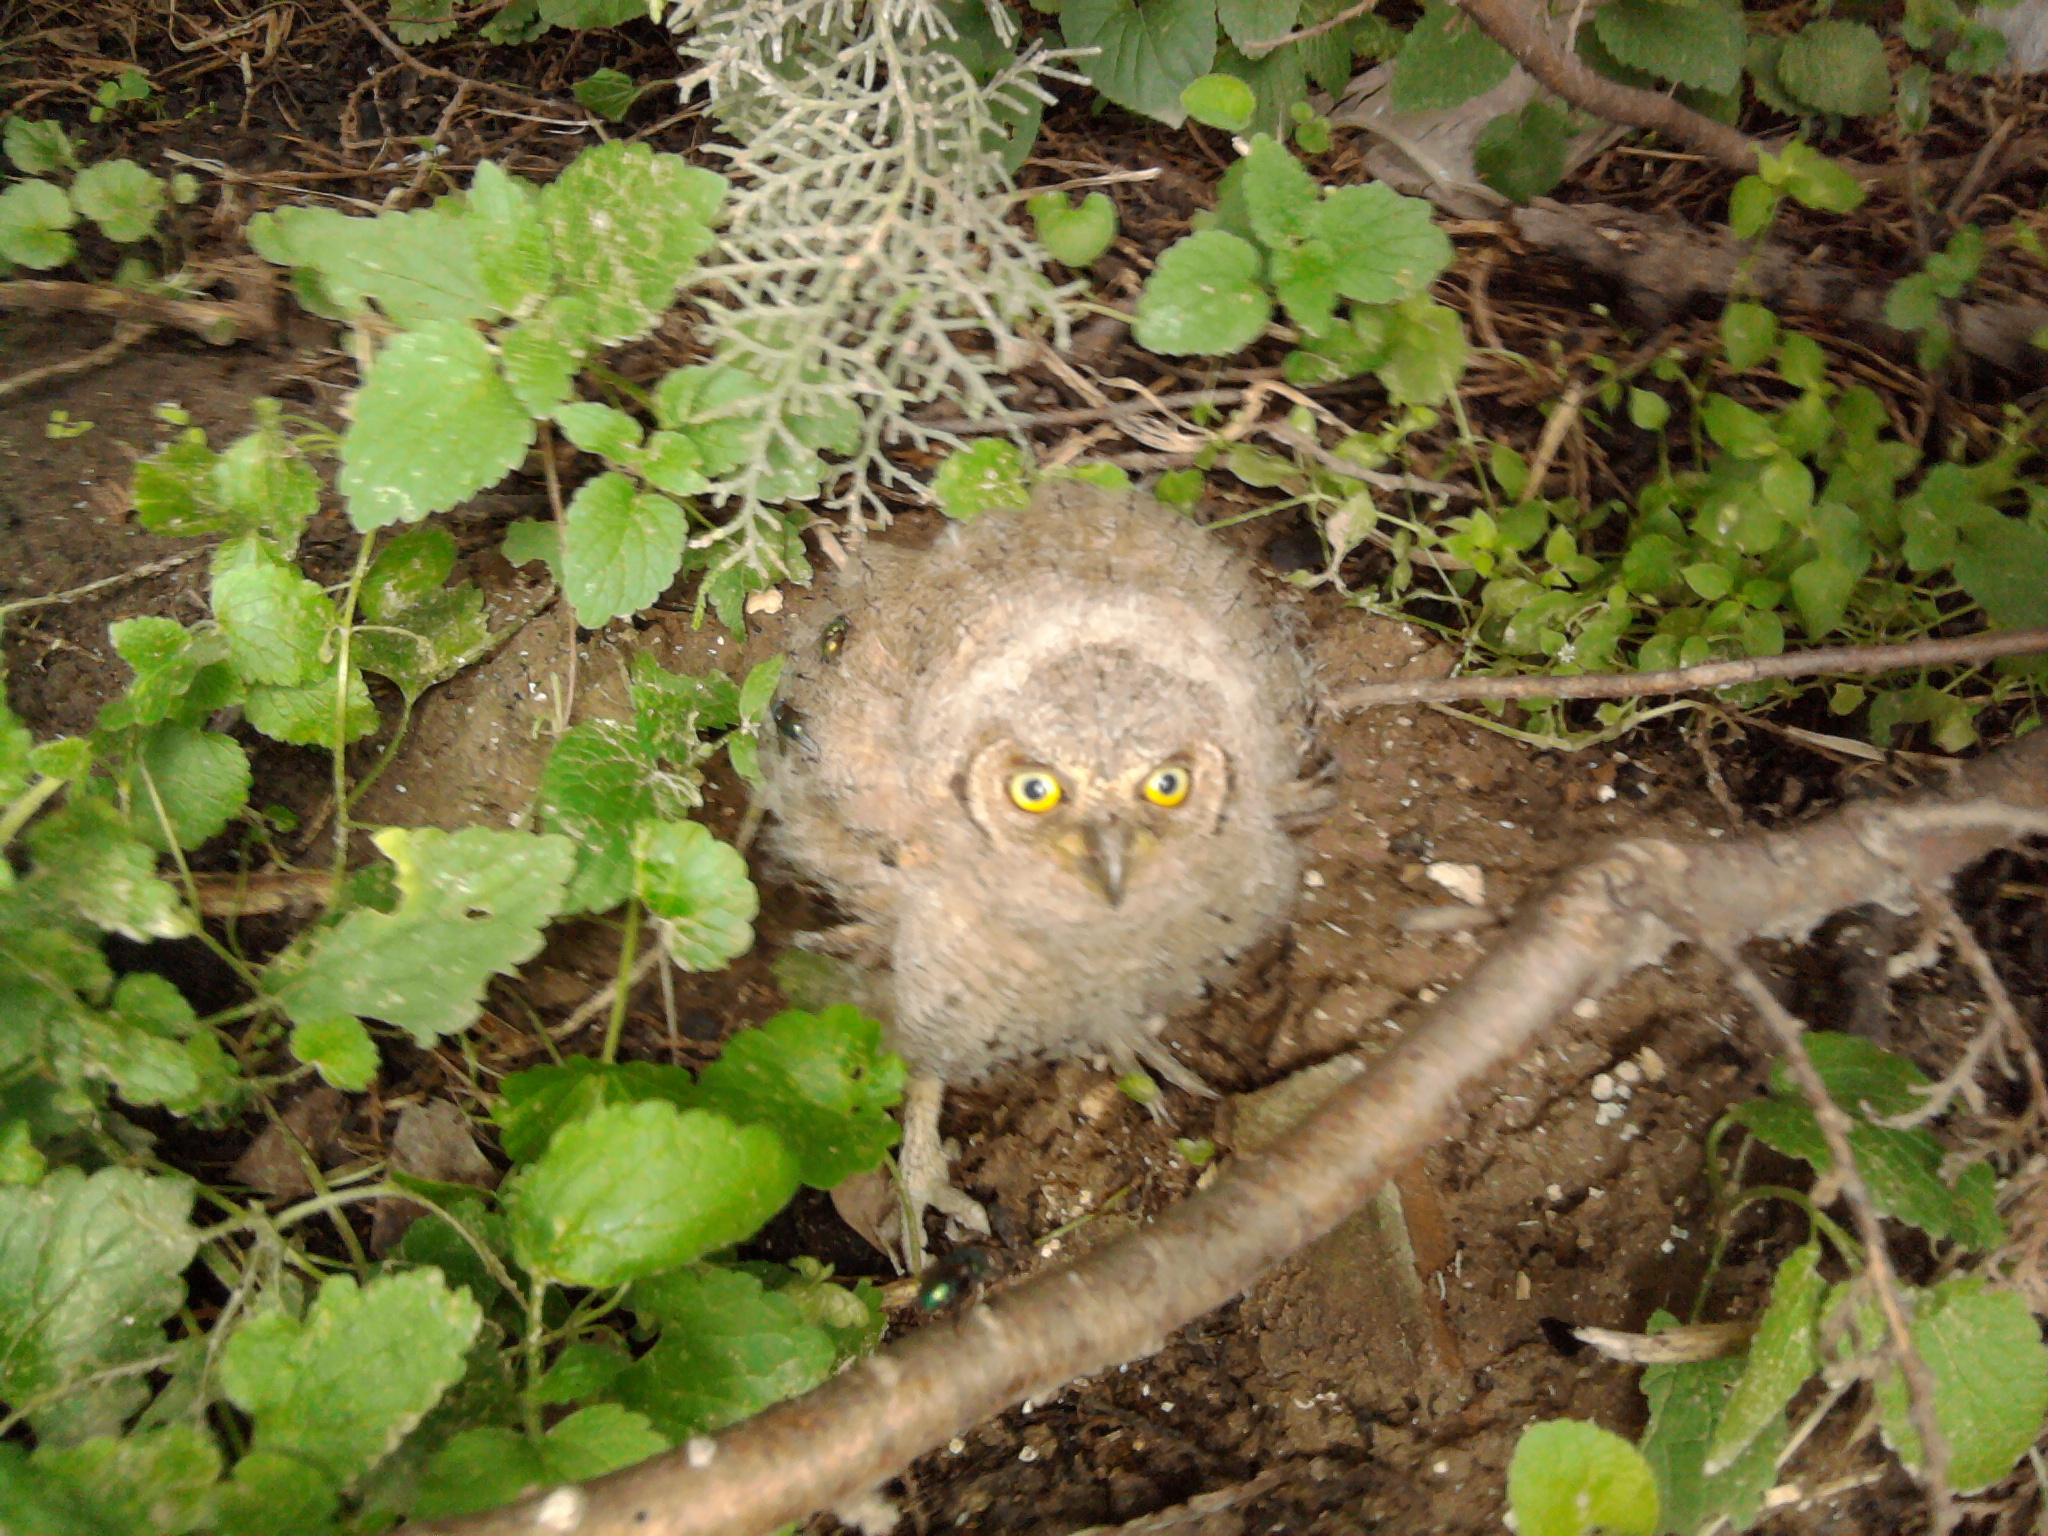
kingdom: Animalia
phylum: Chordata
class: Aves
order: Strigiformes
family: Strigidae
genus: Otus
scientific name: Otus scops
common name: Eurasian scops owl
